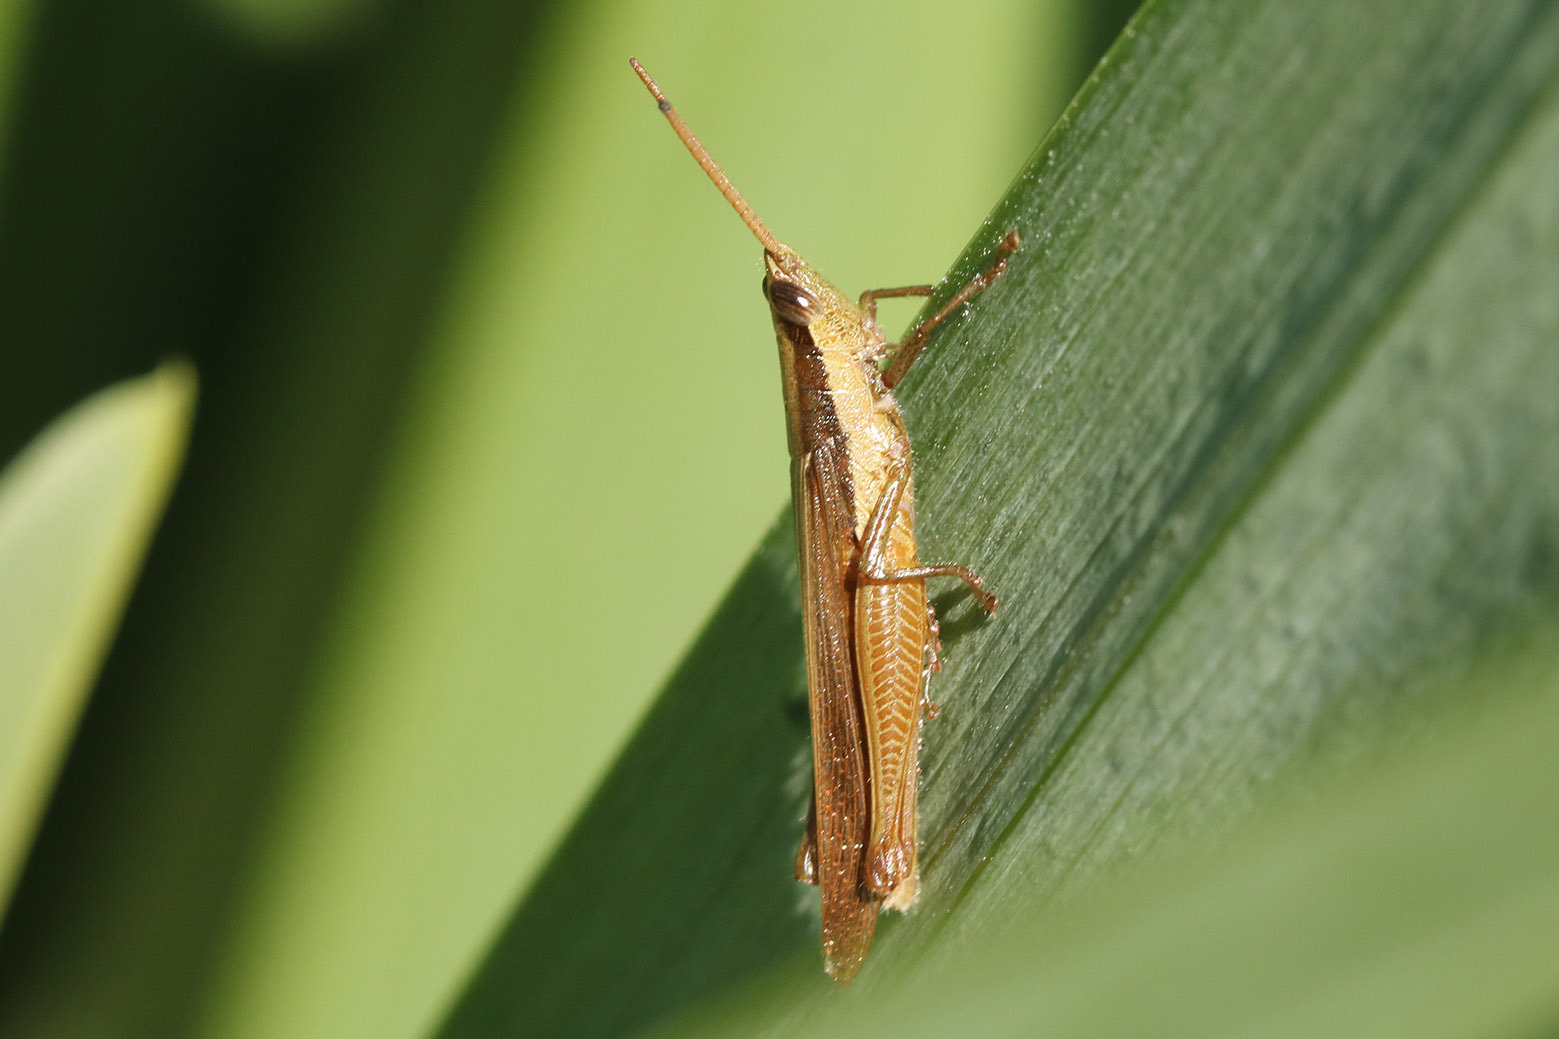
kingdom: Animalia
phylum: Arthropoda
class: Insecta
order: Orthoptera
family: Acrididae
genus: Stenopola
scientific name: Stenopola pallida
